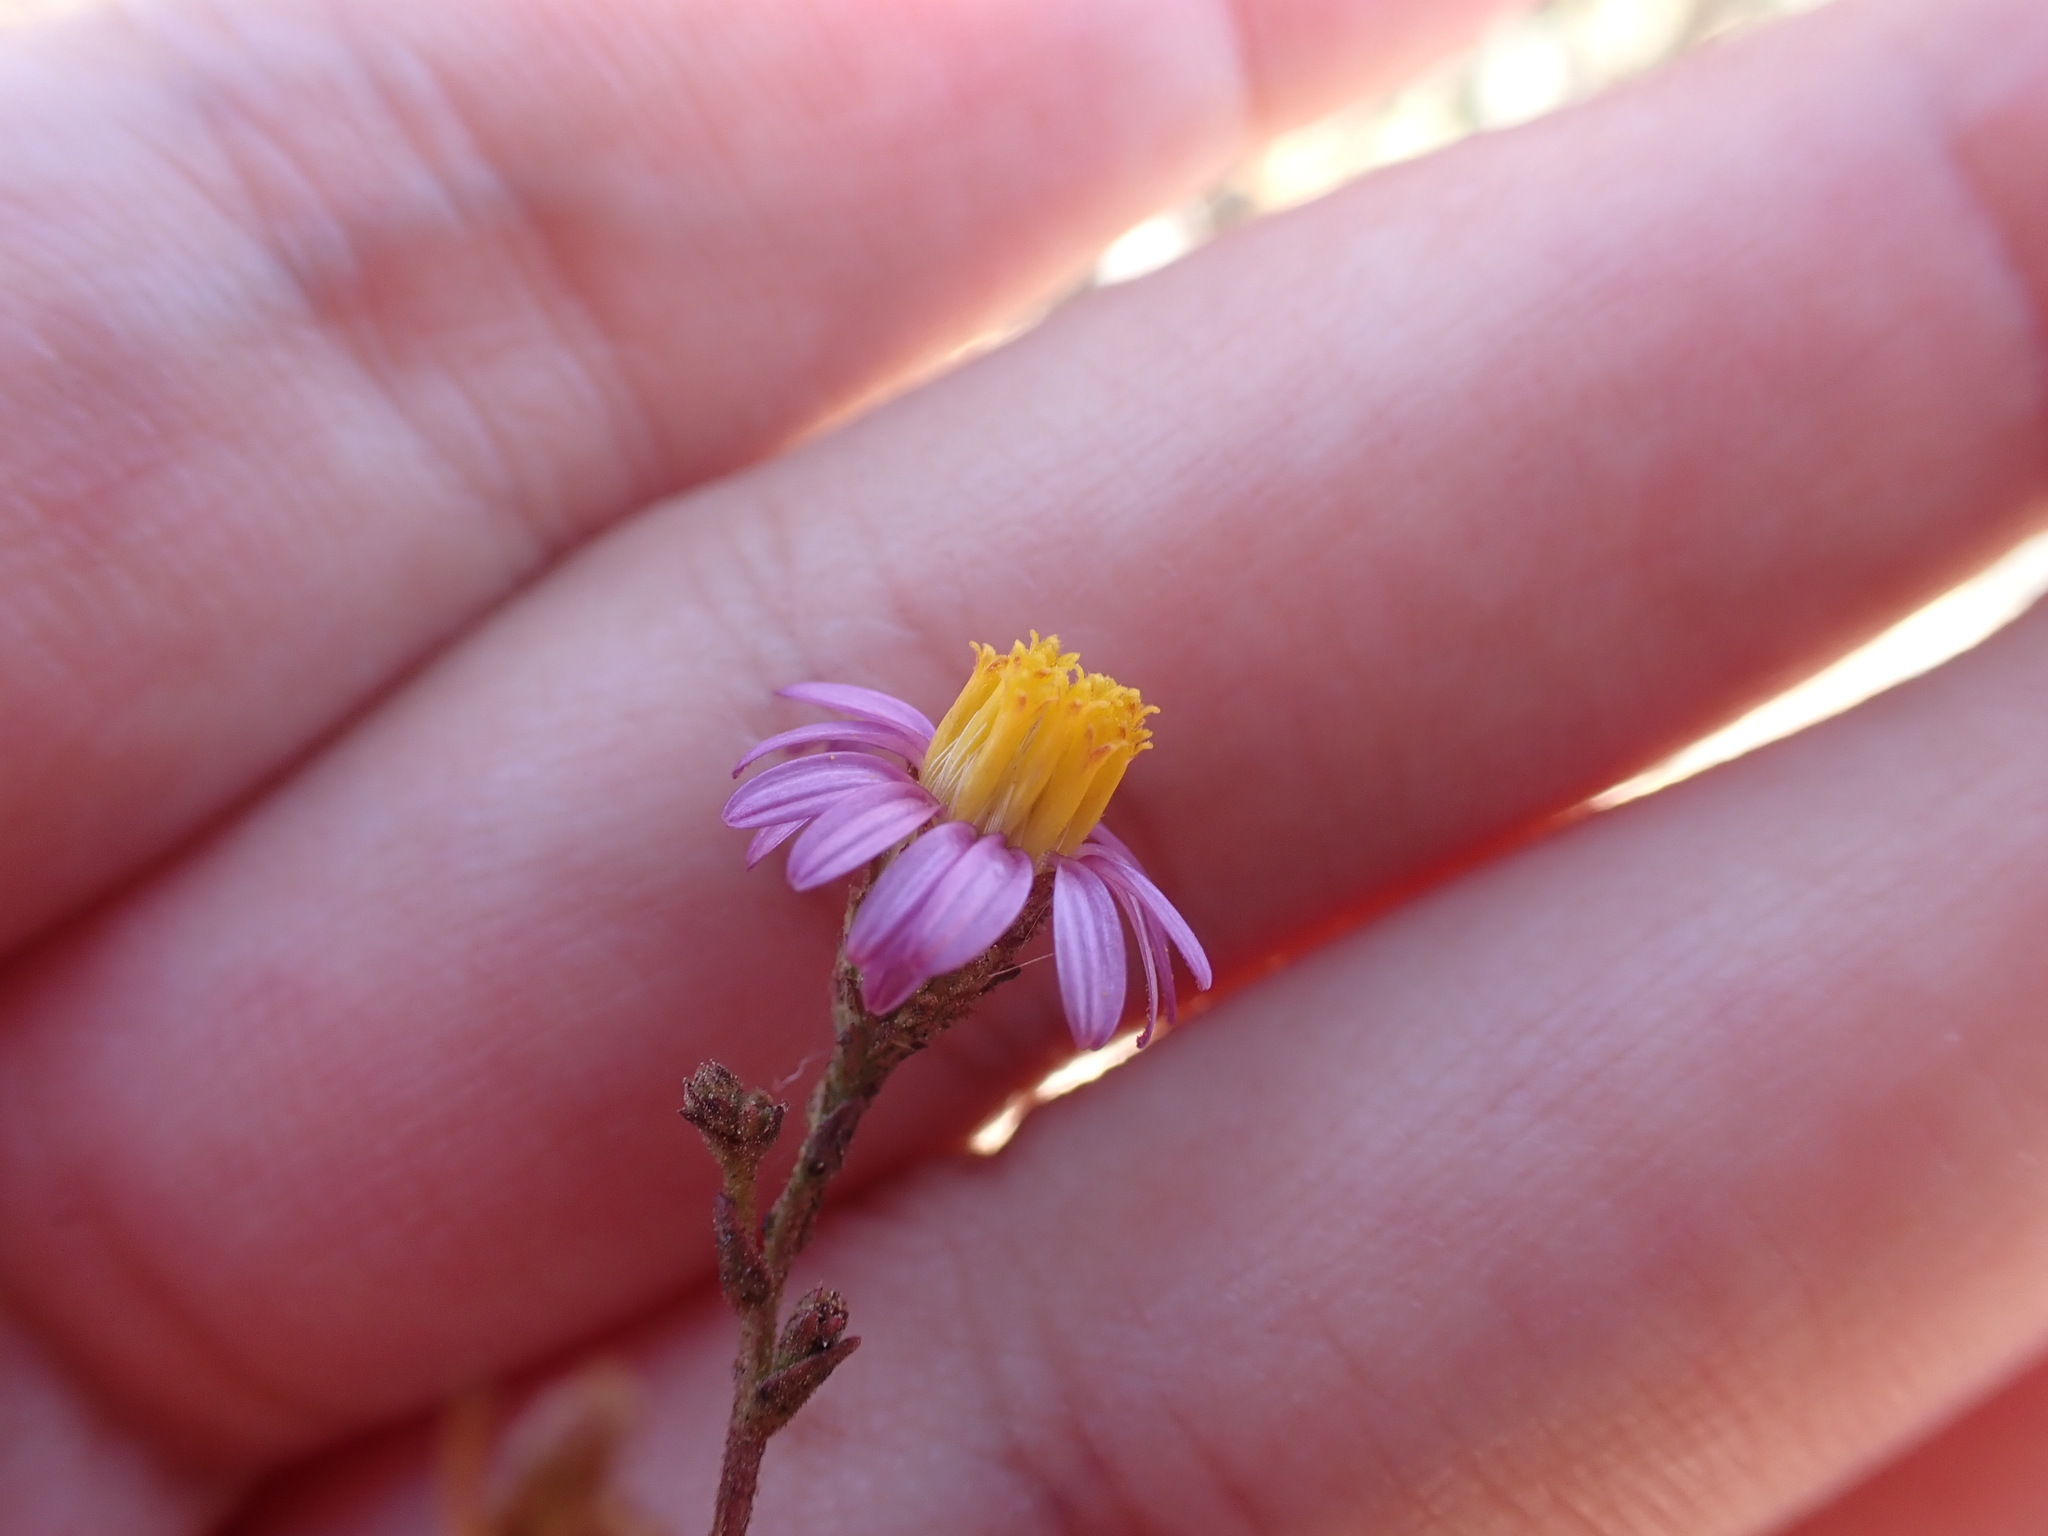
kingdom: Plantae
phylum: Tracheophyta
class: Magnoliopsida
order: Asterales
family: Asteraceae
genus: Corethrogyne
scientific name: Corethrogyne filaginifolia
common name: Sand-aster
